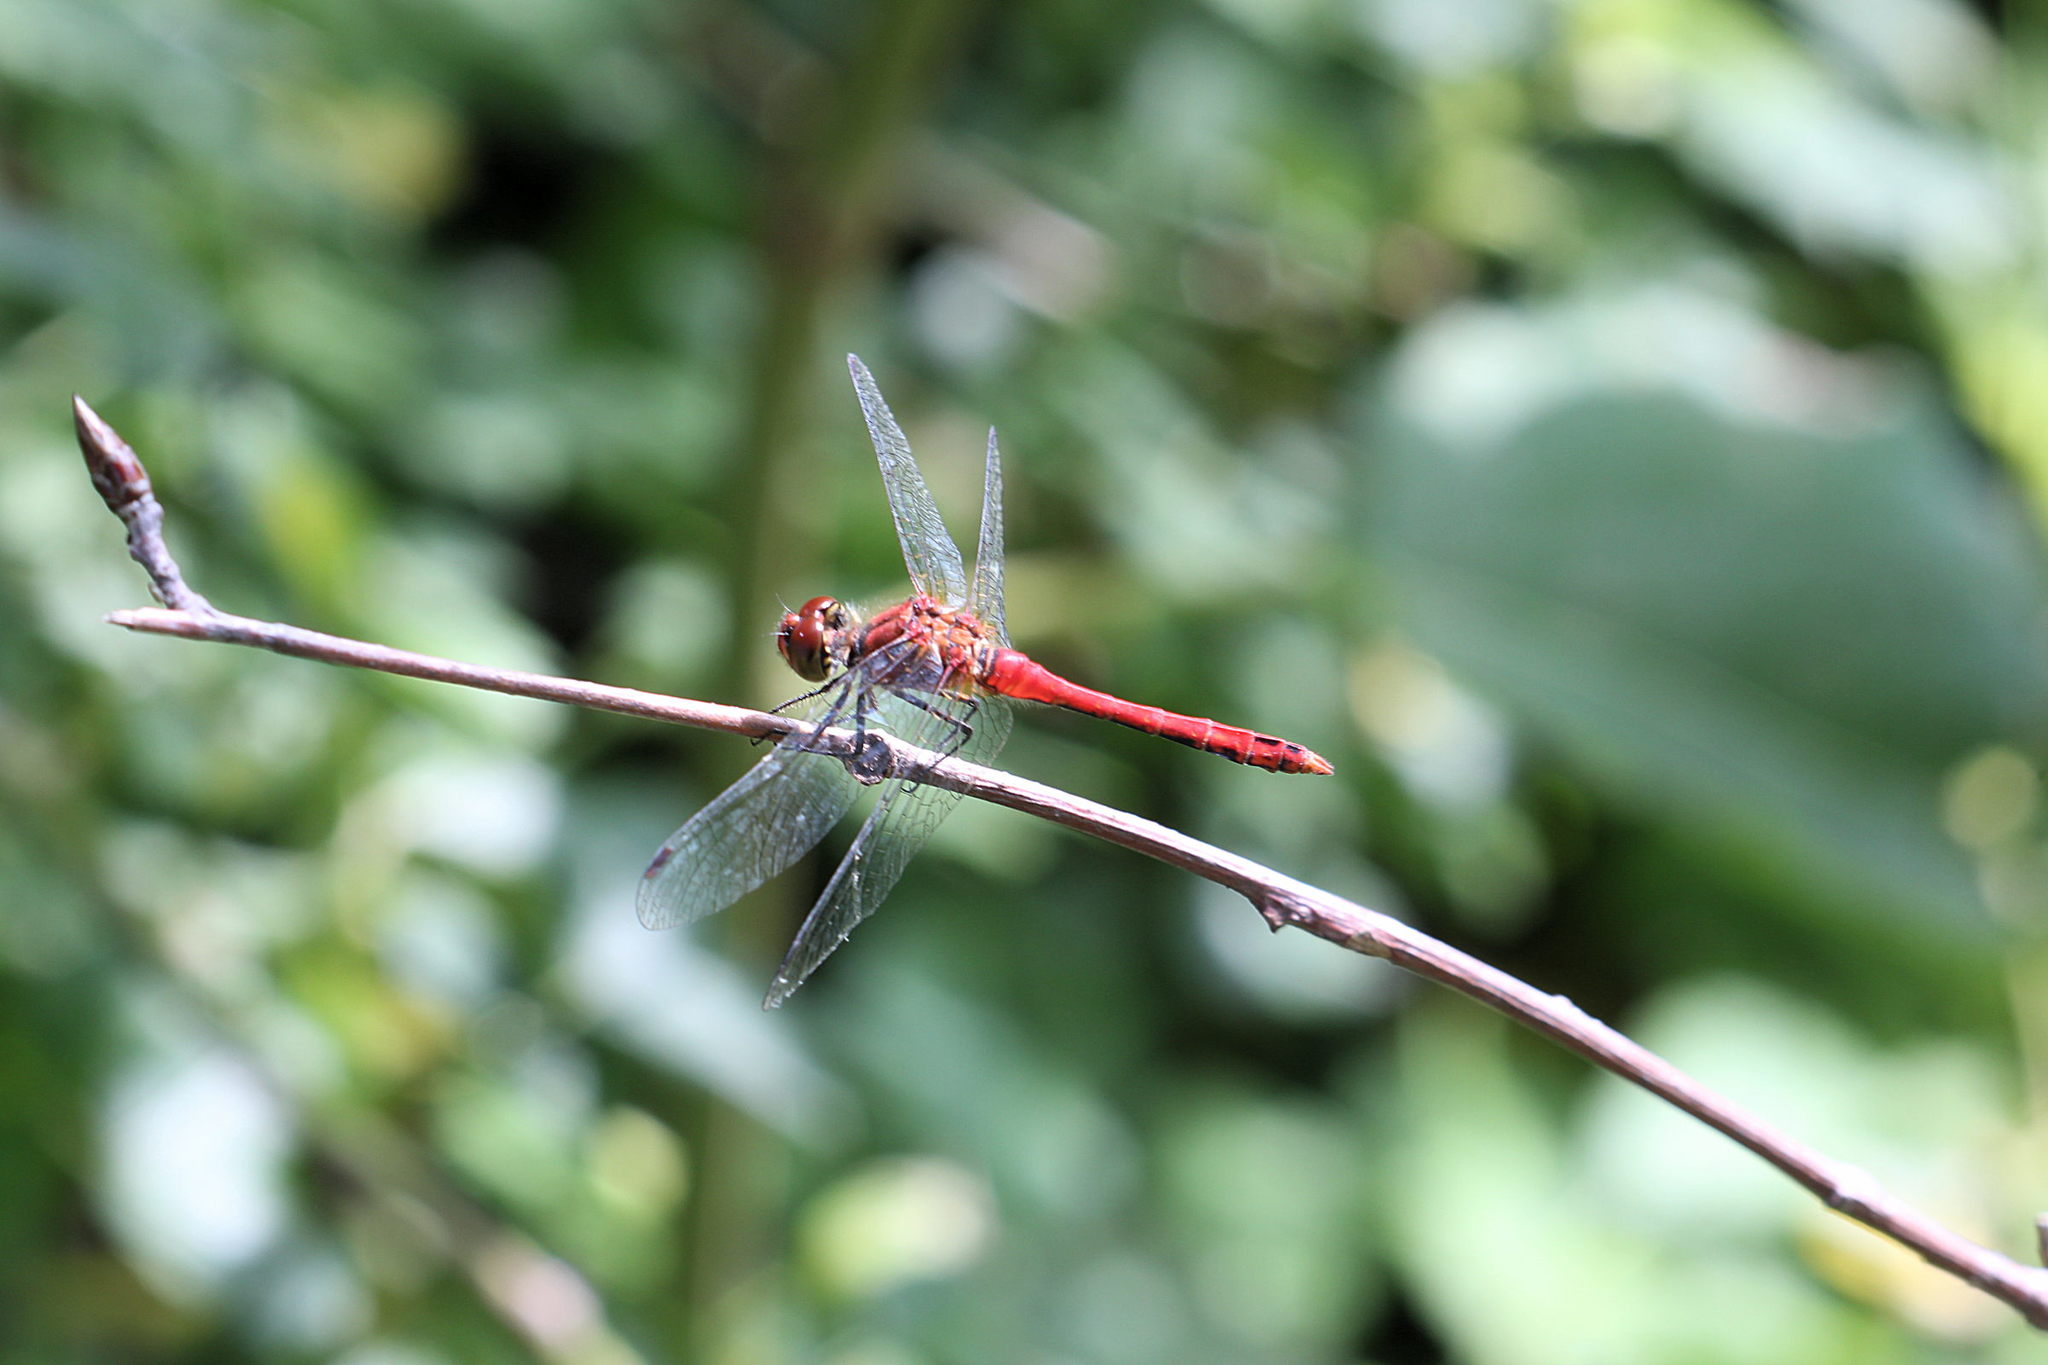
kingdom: Animalia
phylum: Arthropoda
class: Insecta
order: Odonata
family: Libellulidae
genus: Sympetrum
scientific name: Sympetrum sanguineum
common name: Ruddy darter
